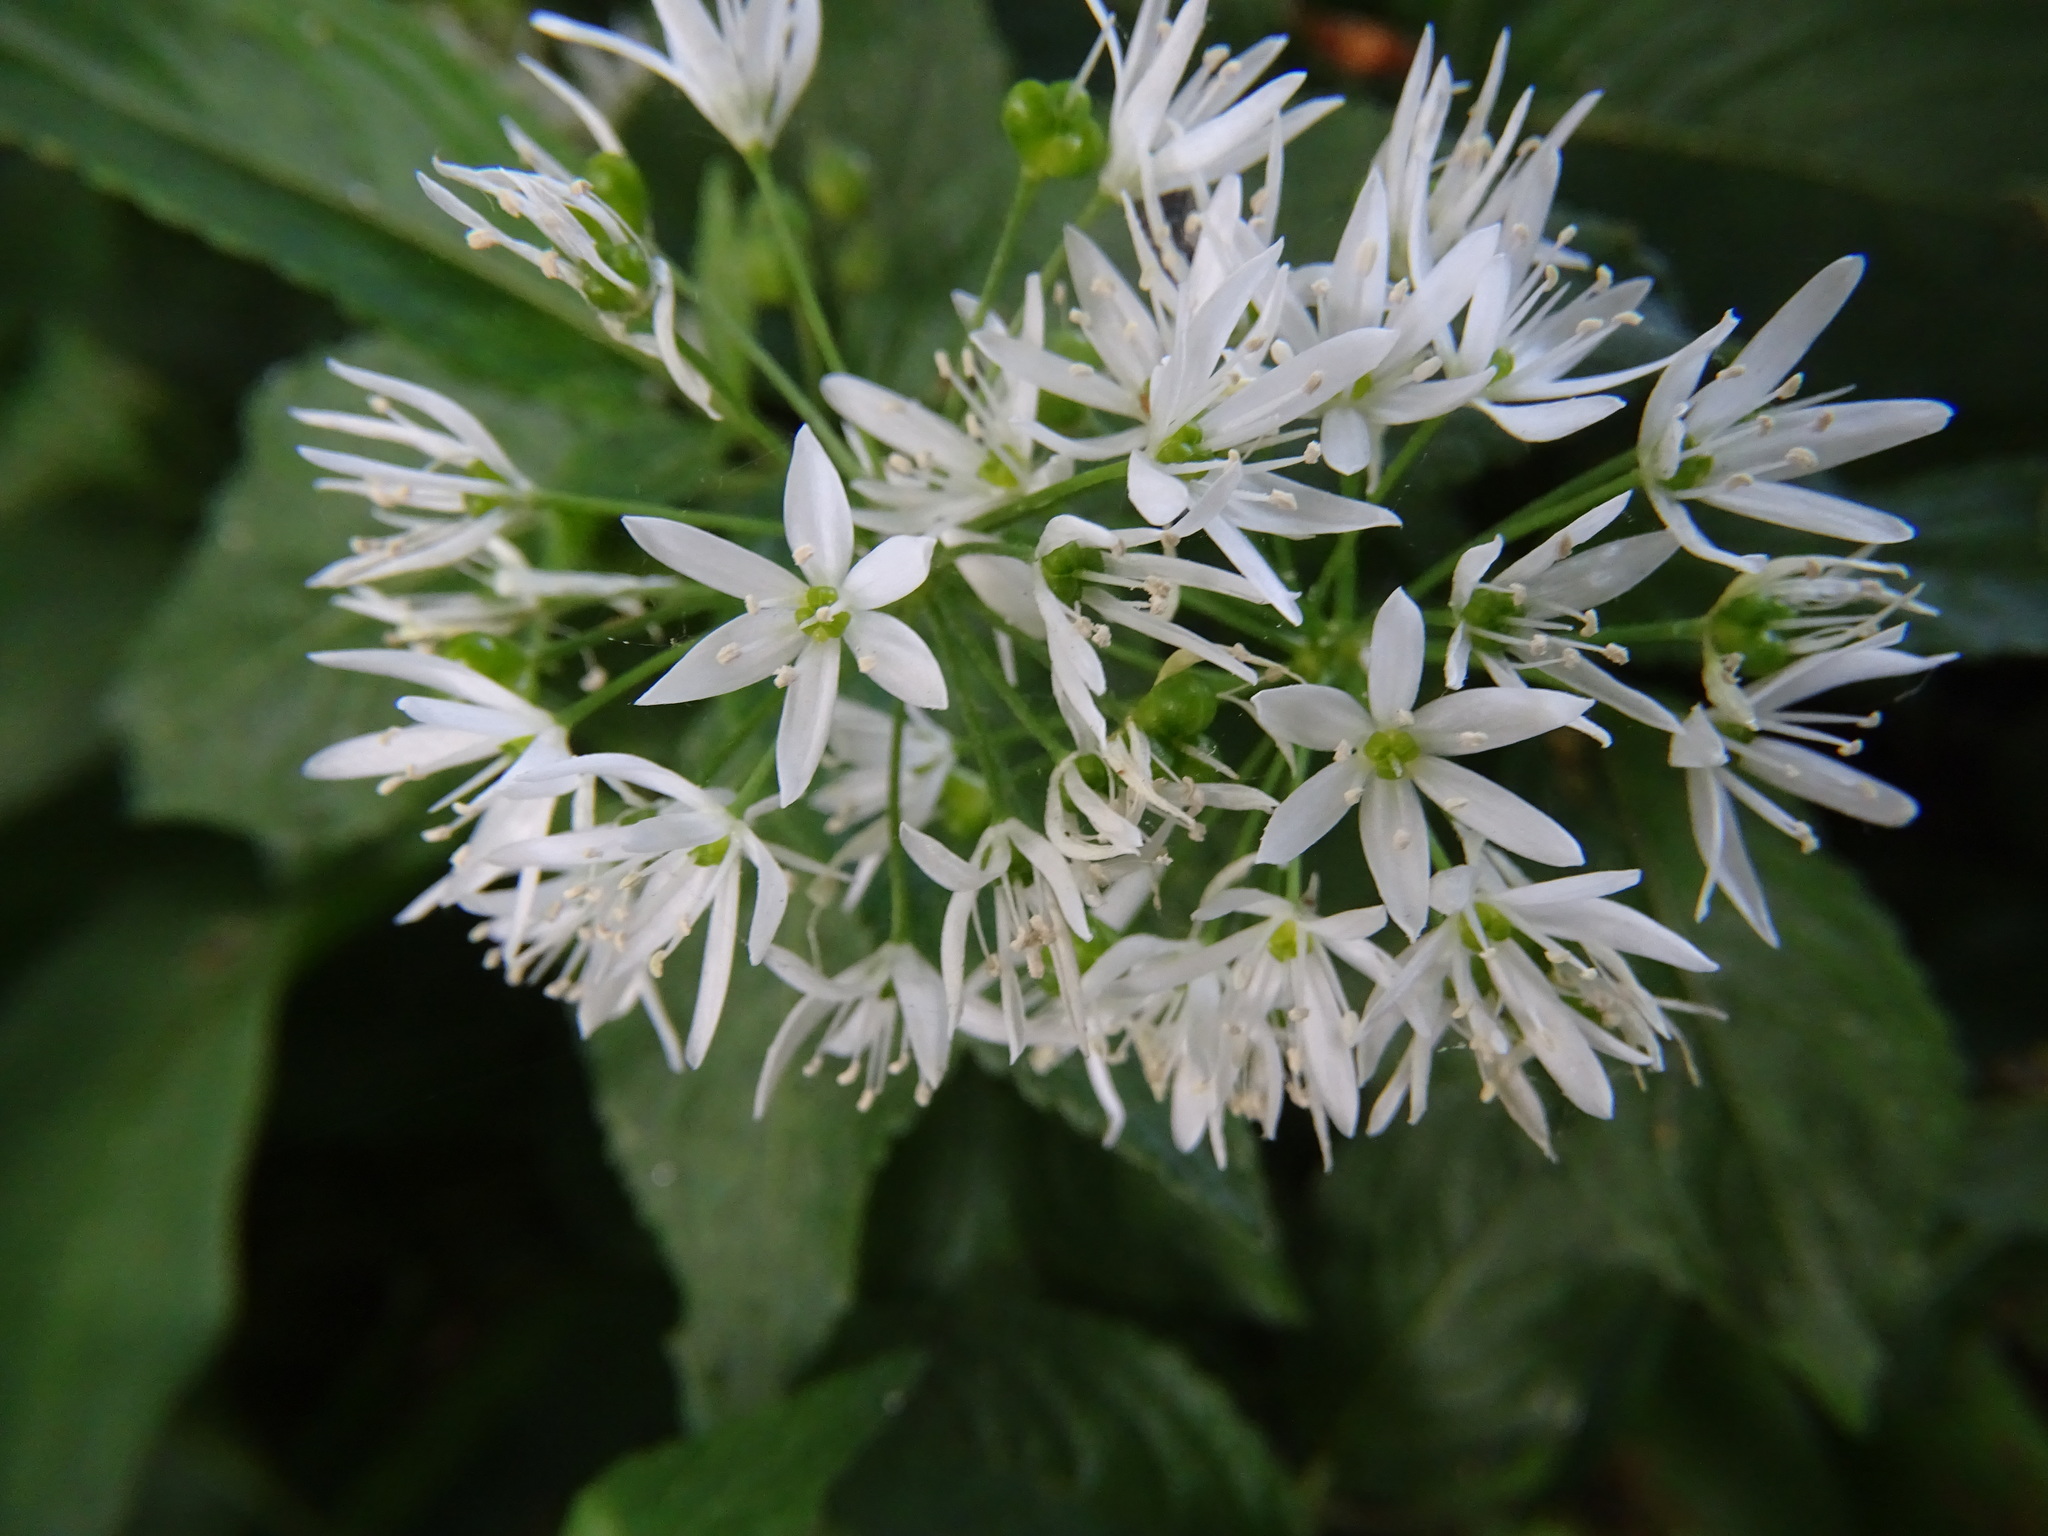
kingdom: Plantae
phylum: Tracheophyta
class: Liliopsida
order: Asparagales
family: Amaryllidaceae
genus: Allium
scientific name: Allium ursinum
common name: Ramsons
